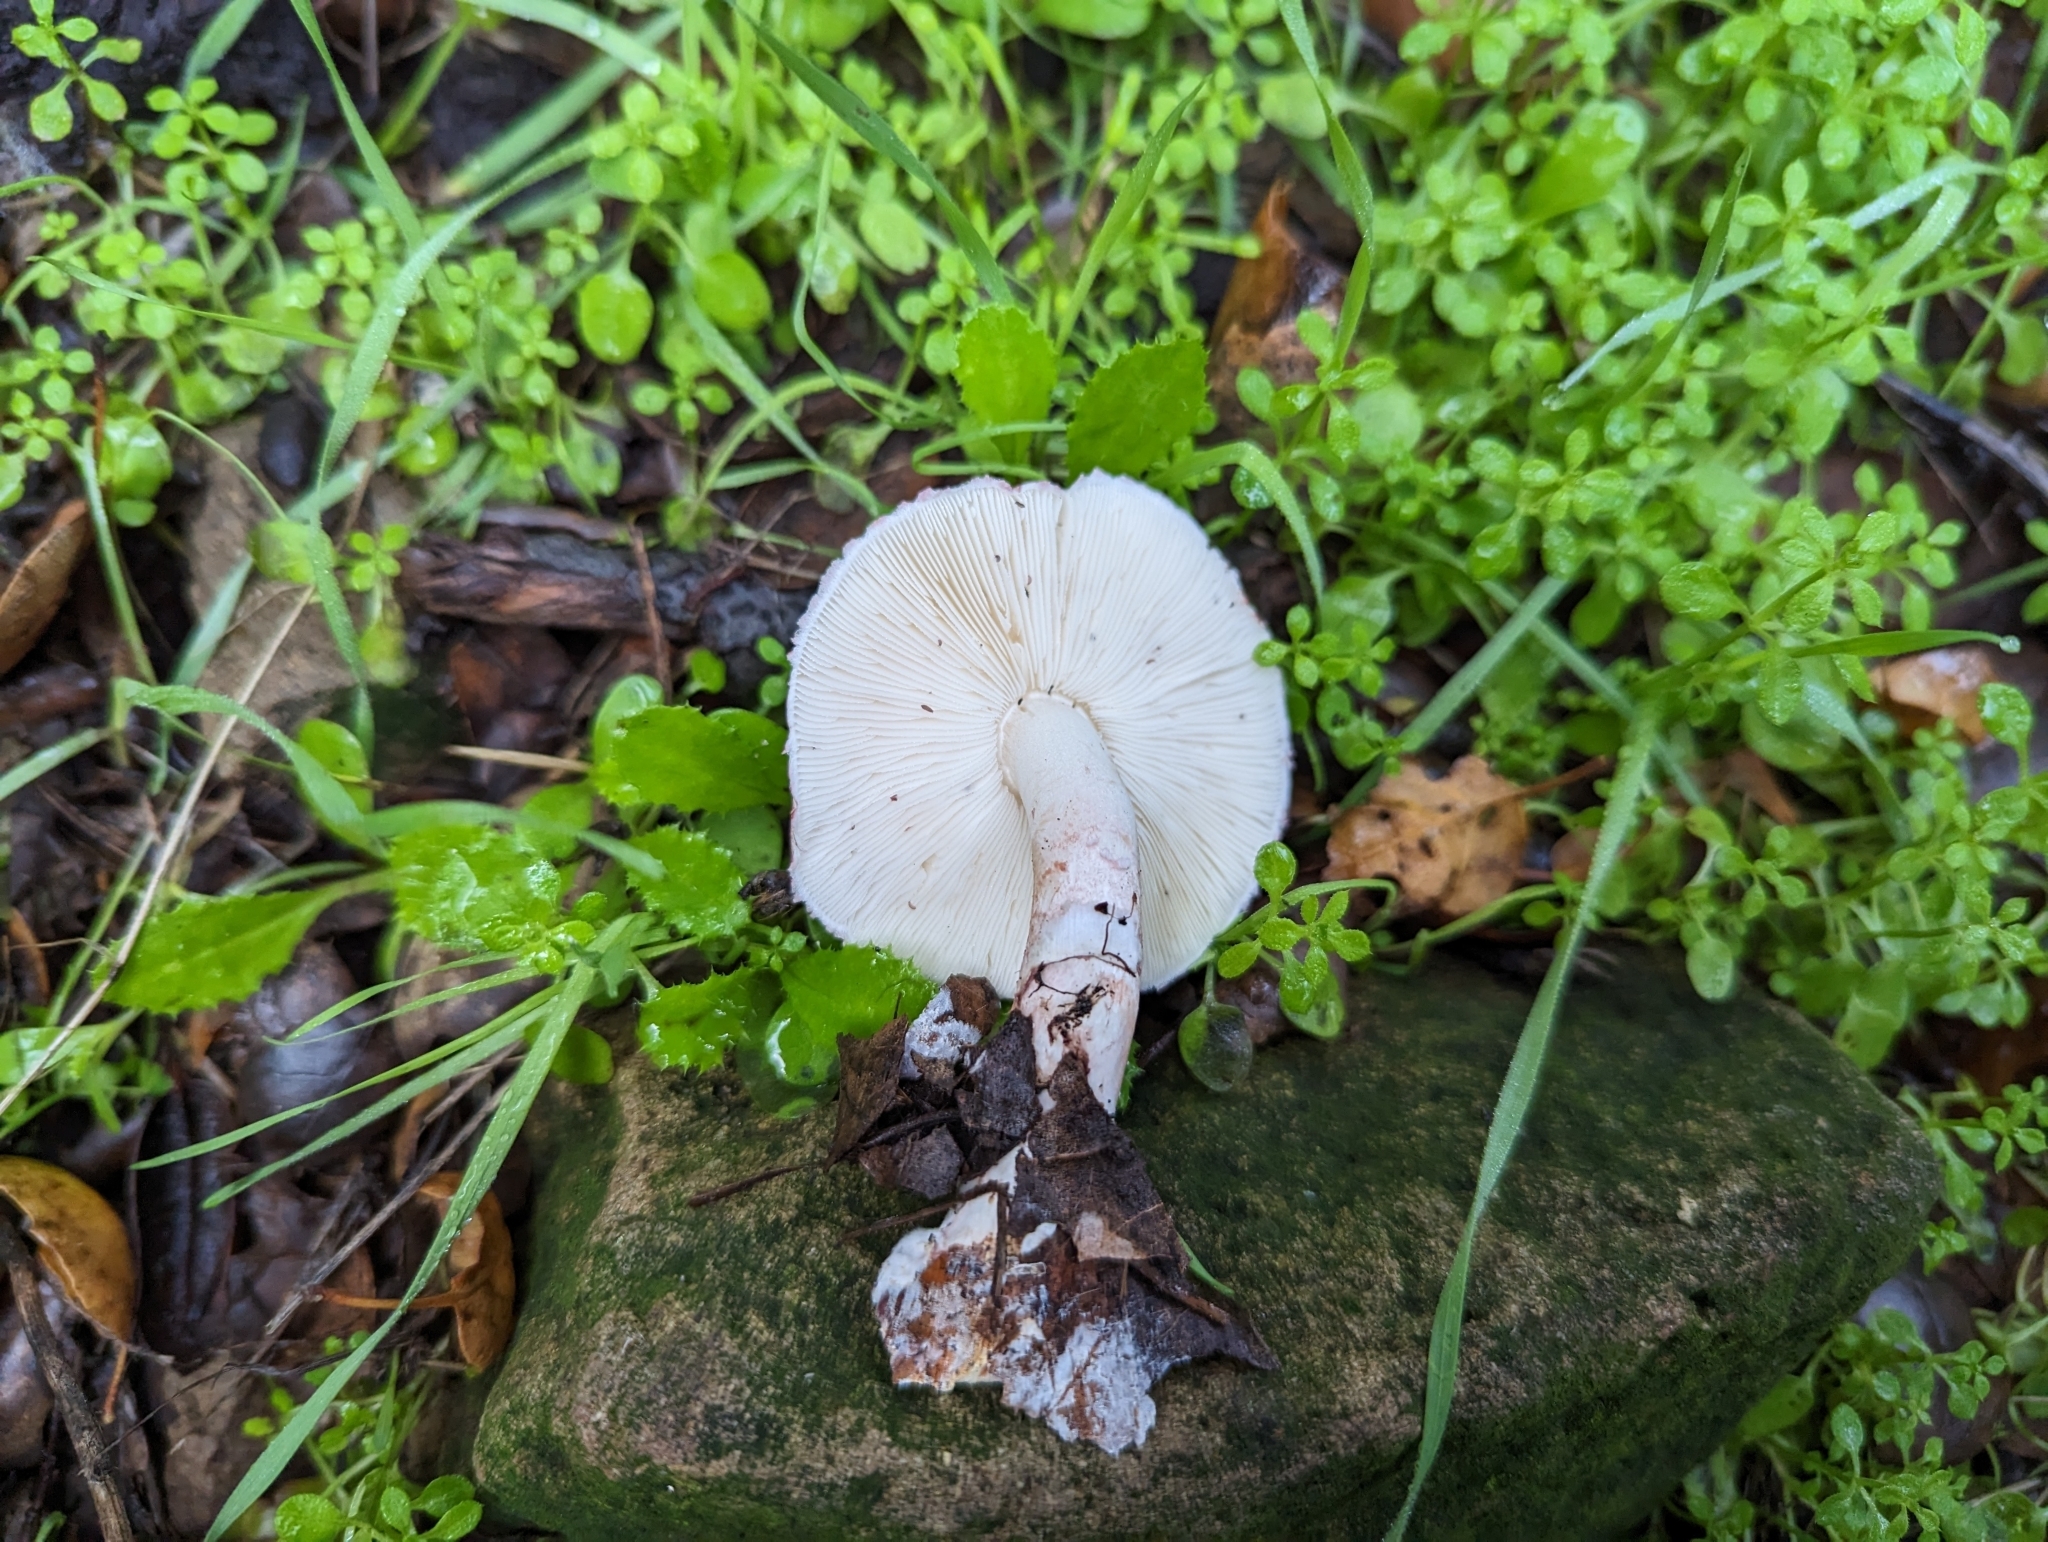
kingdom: Fungi
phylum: Basidiomycota
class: Agaricomycetes
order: Agaricales
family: Agaricaceae
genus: Lepiota
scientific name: Lepiota decorata
